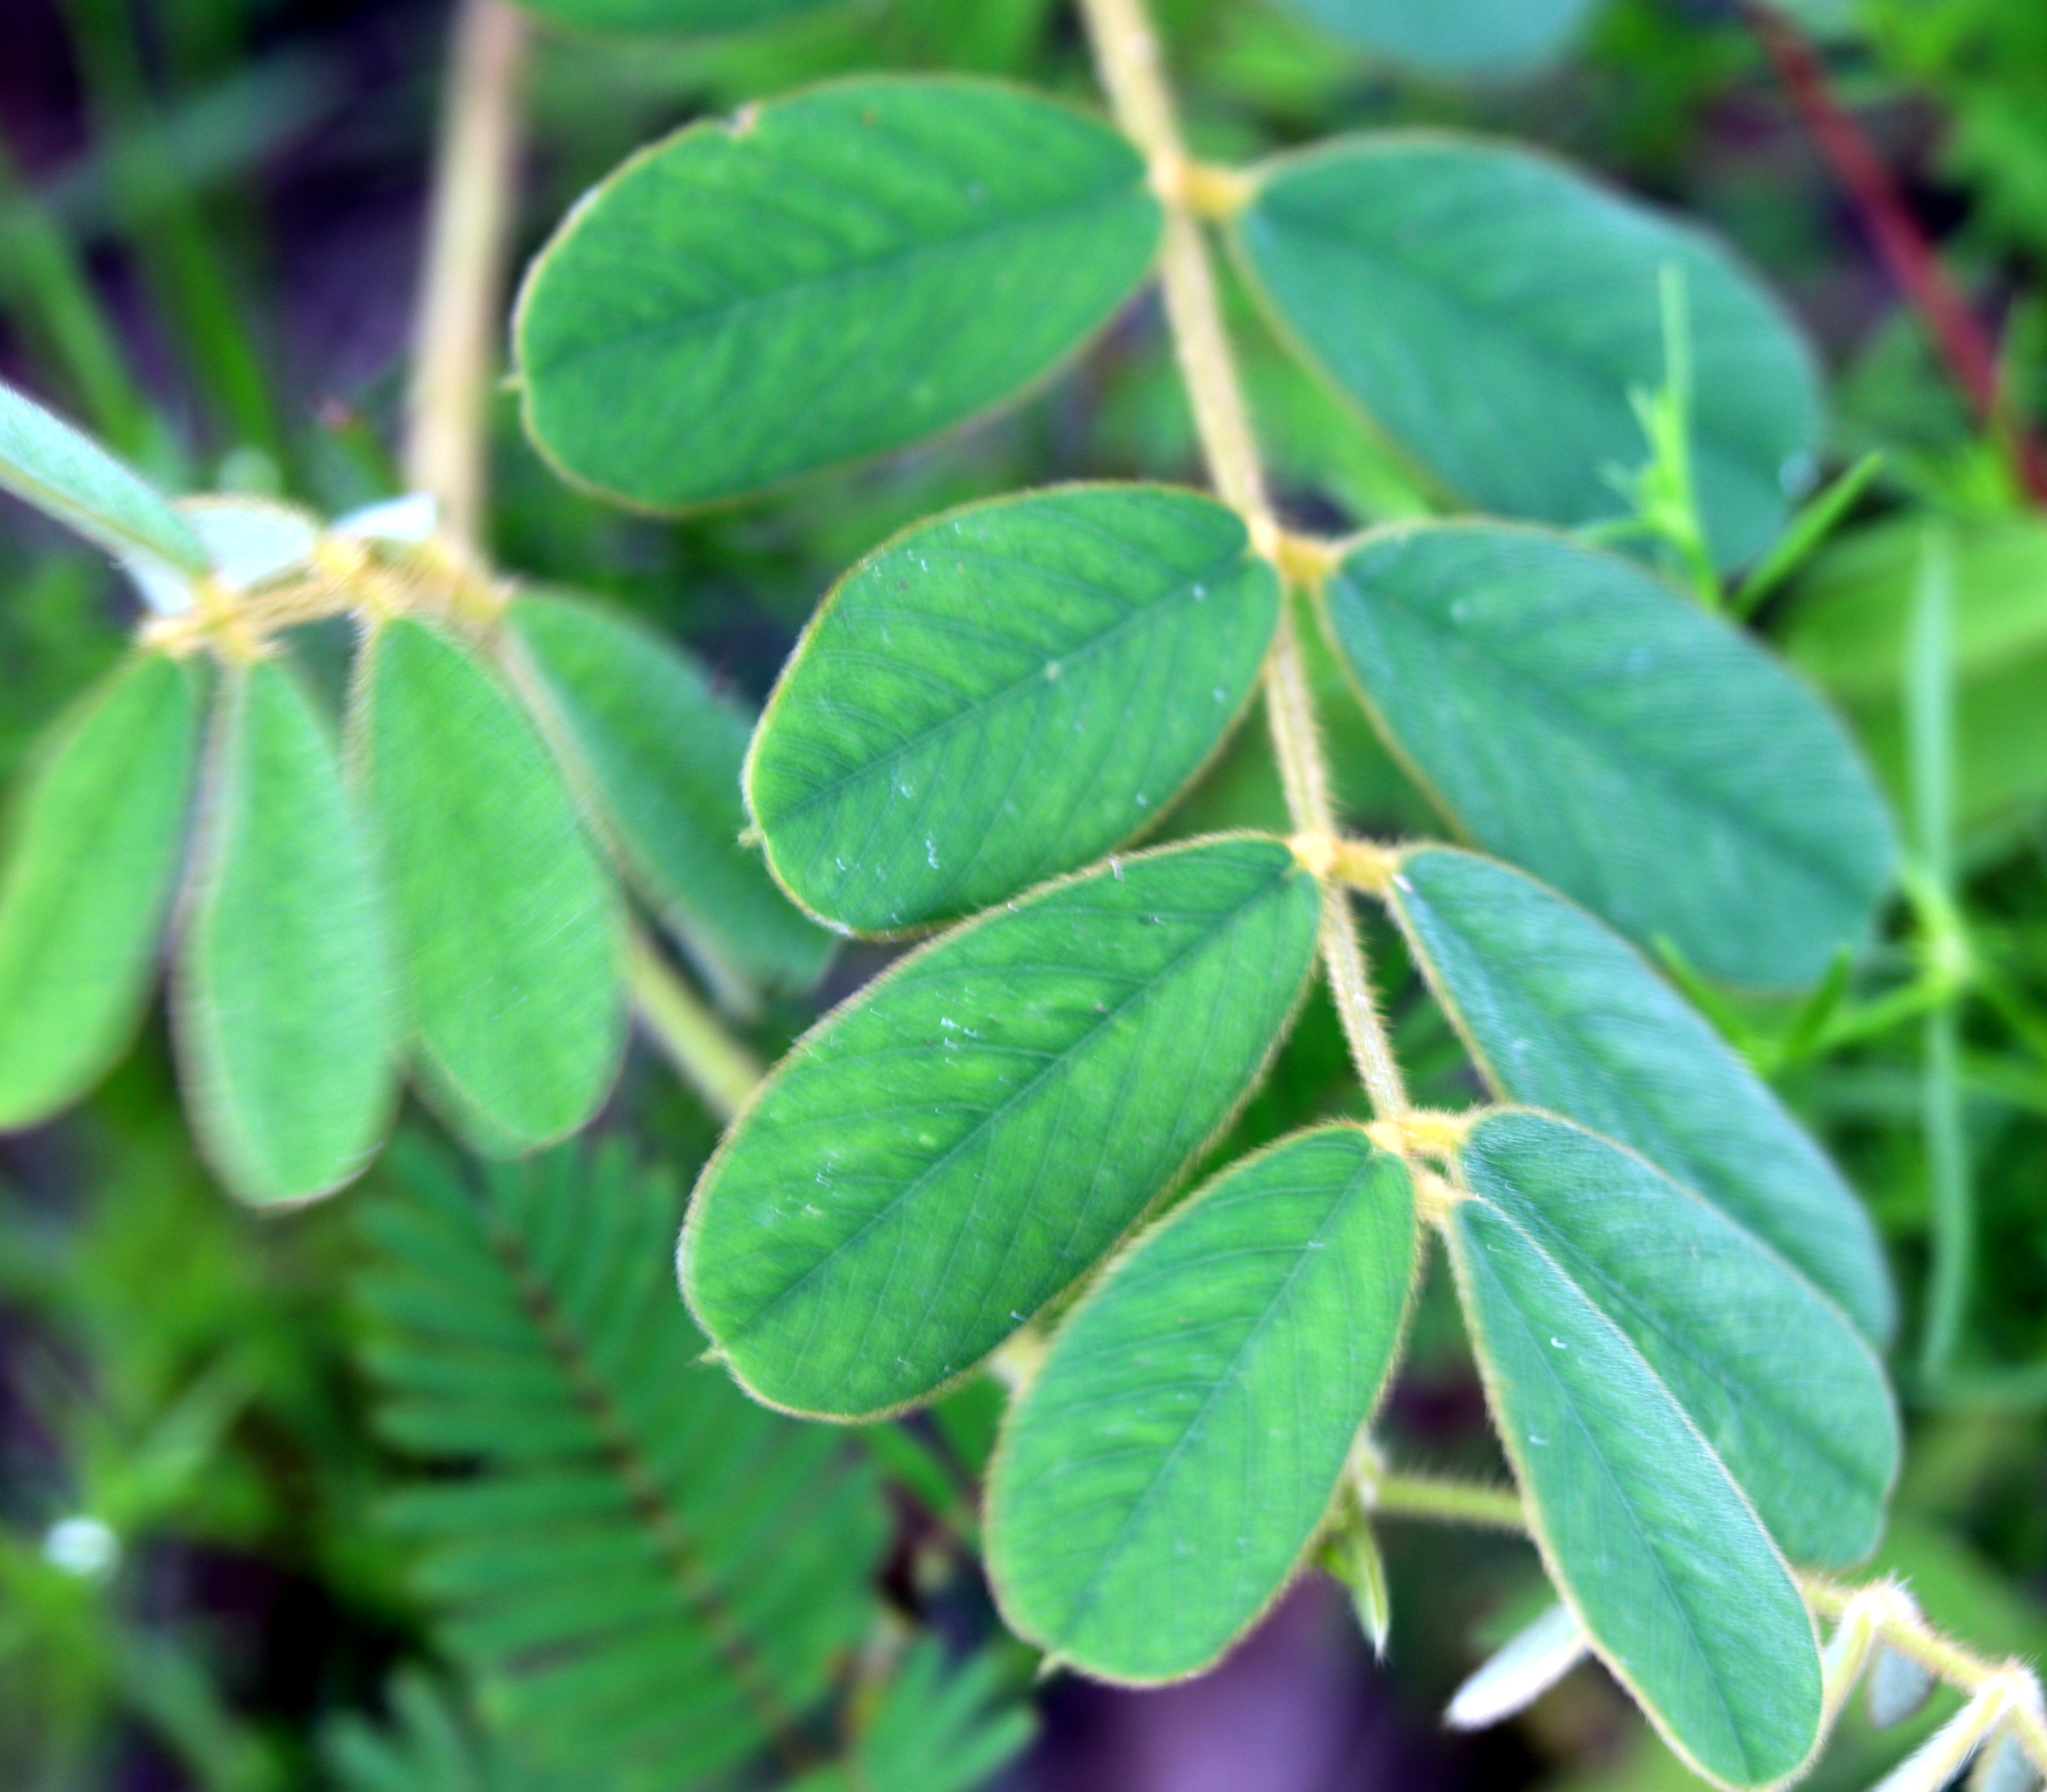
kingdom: Plantae
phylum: Tracheophyta
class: Magnoliopsida
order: Fabales
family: Fabaceae
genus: Tephrosia
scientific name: Tephrosia spicata
